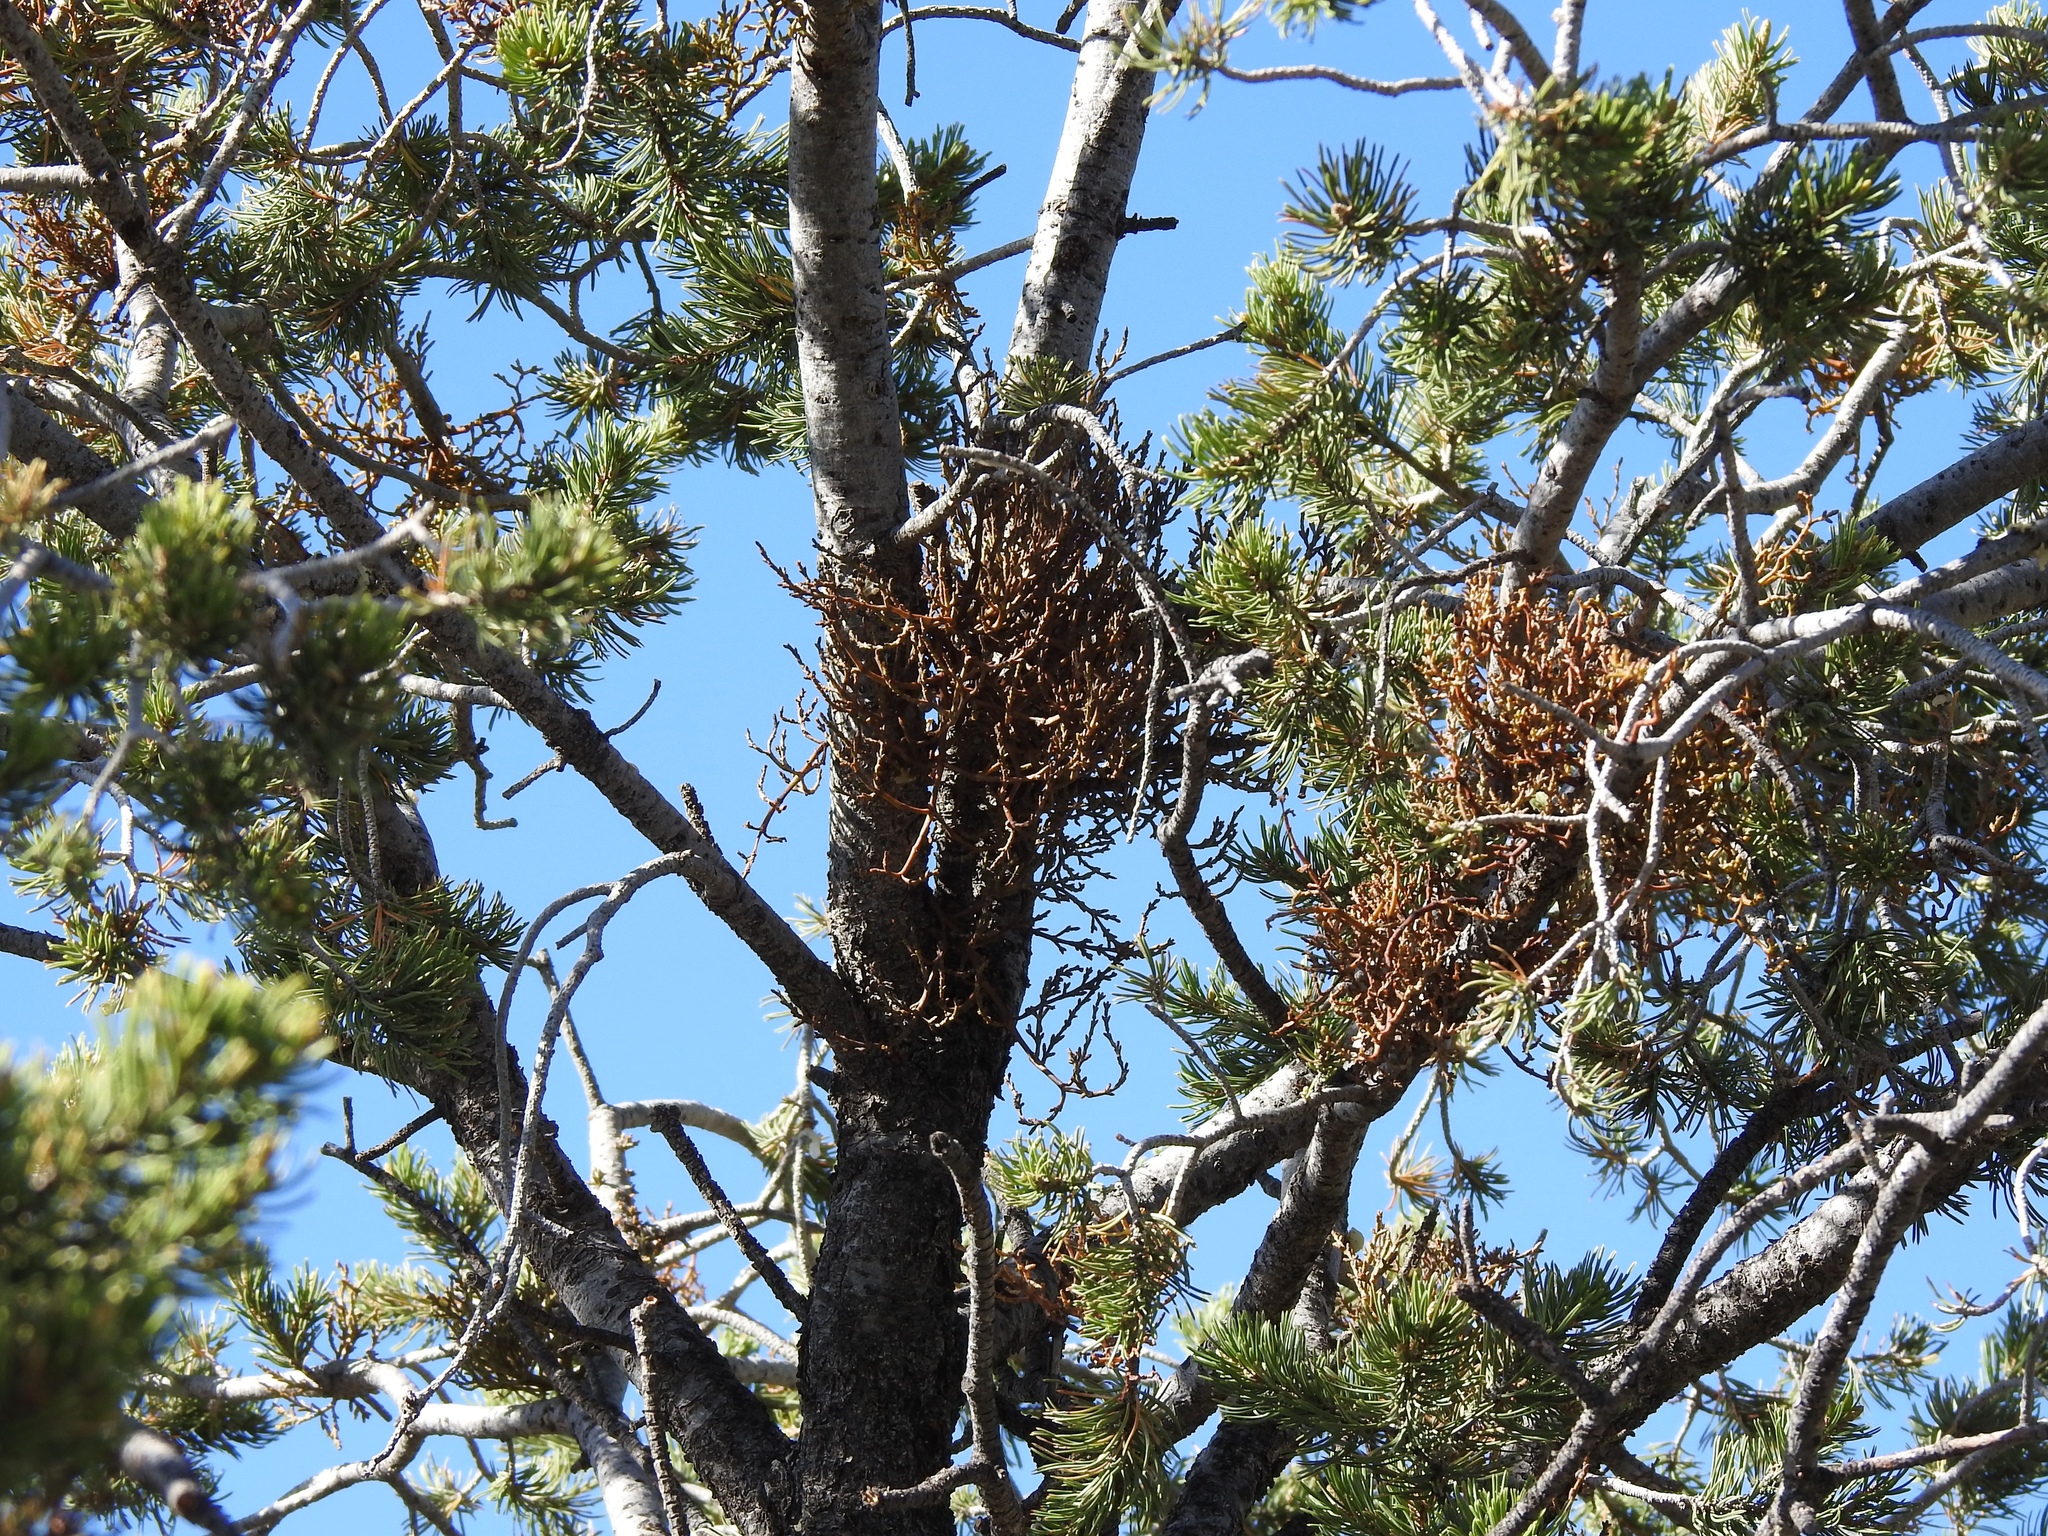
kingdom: Plantae
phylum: Tracheophyta
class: Magnoliopsida
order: Santalales
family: Viscaceae
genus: Arceuthobium
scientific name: Arceuthobium divaricatum
